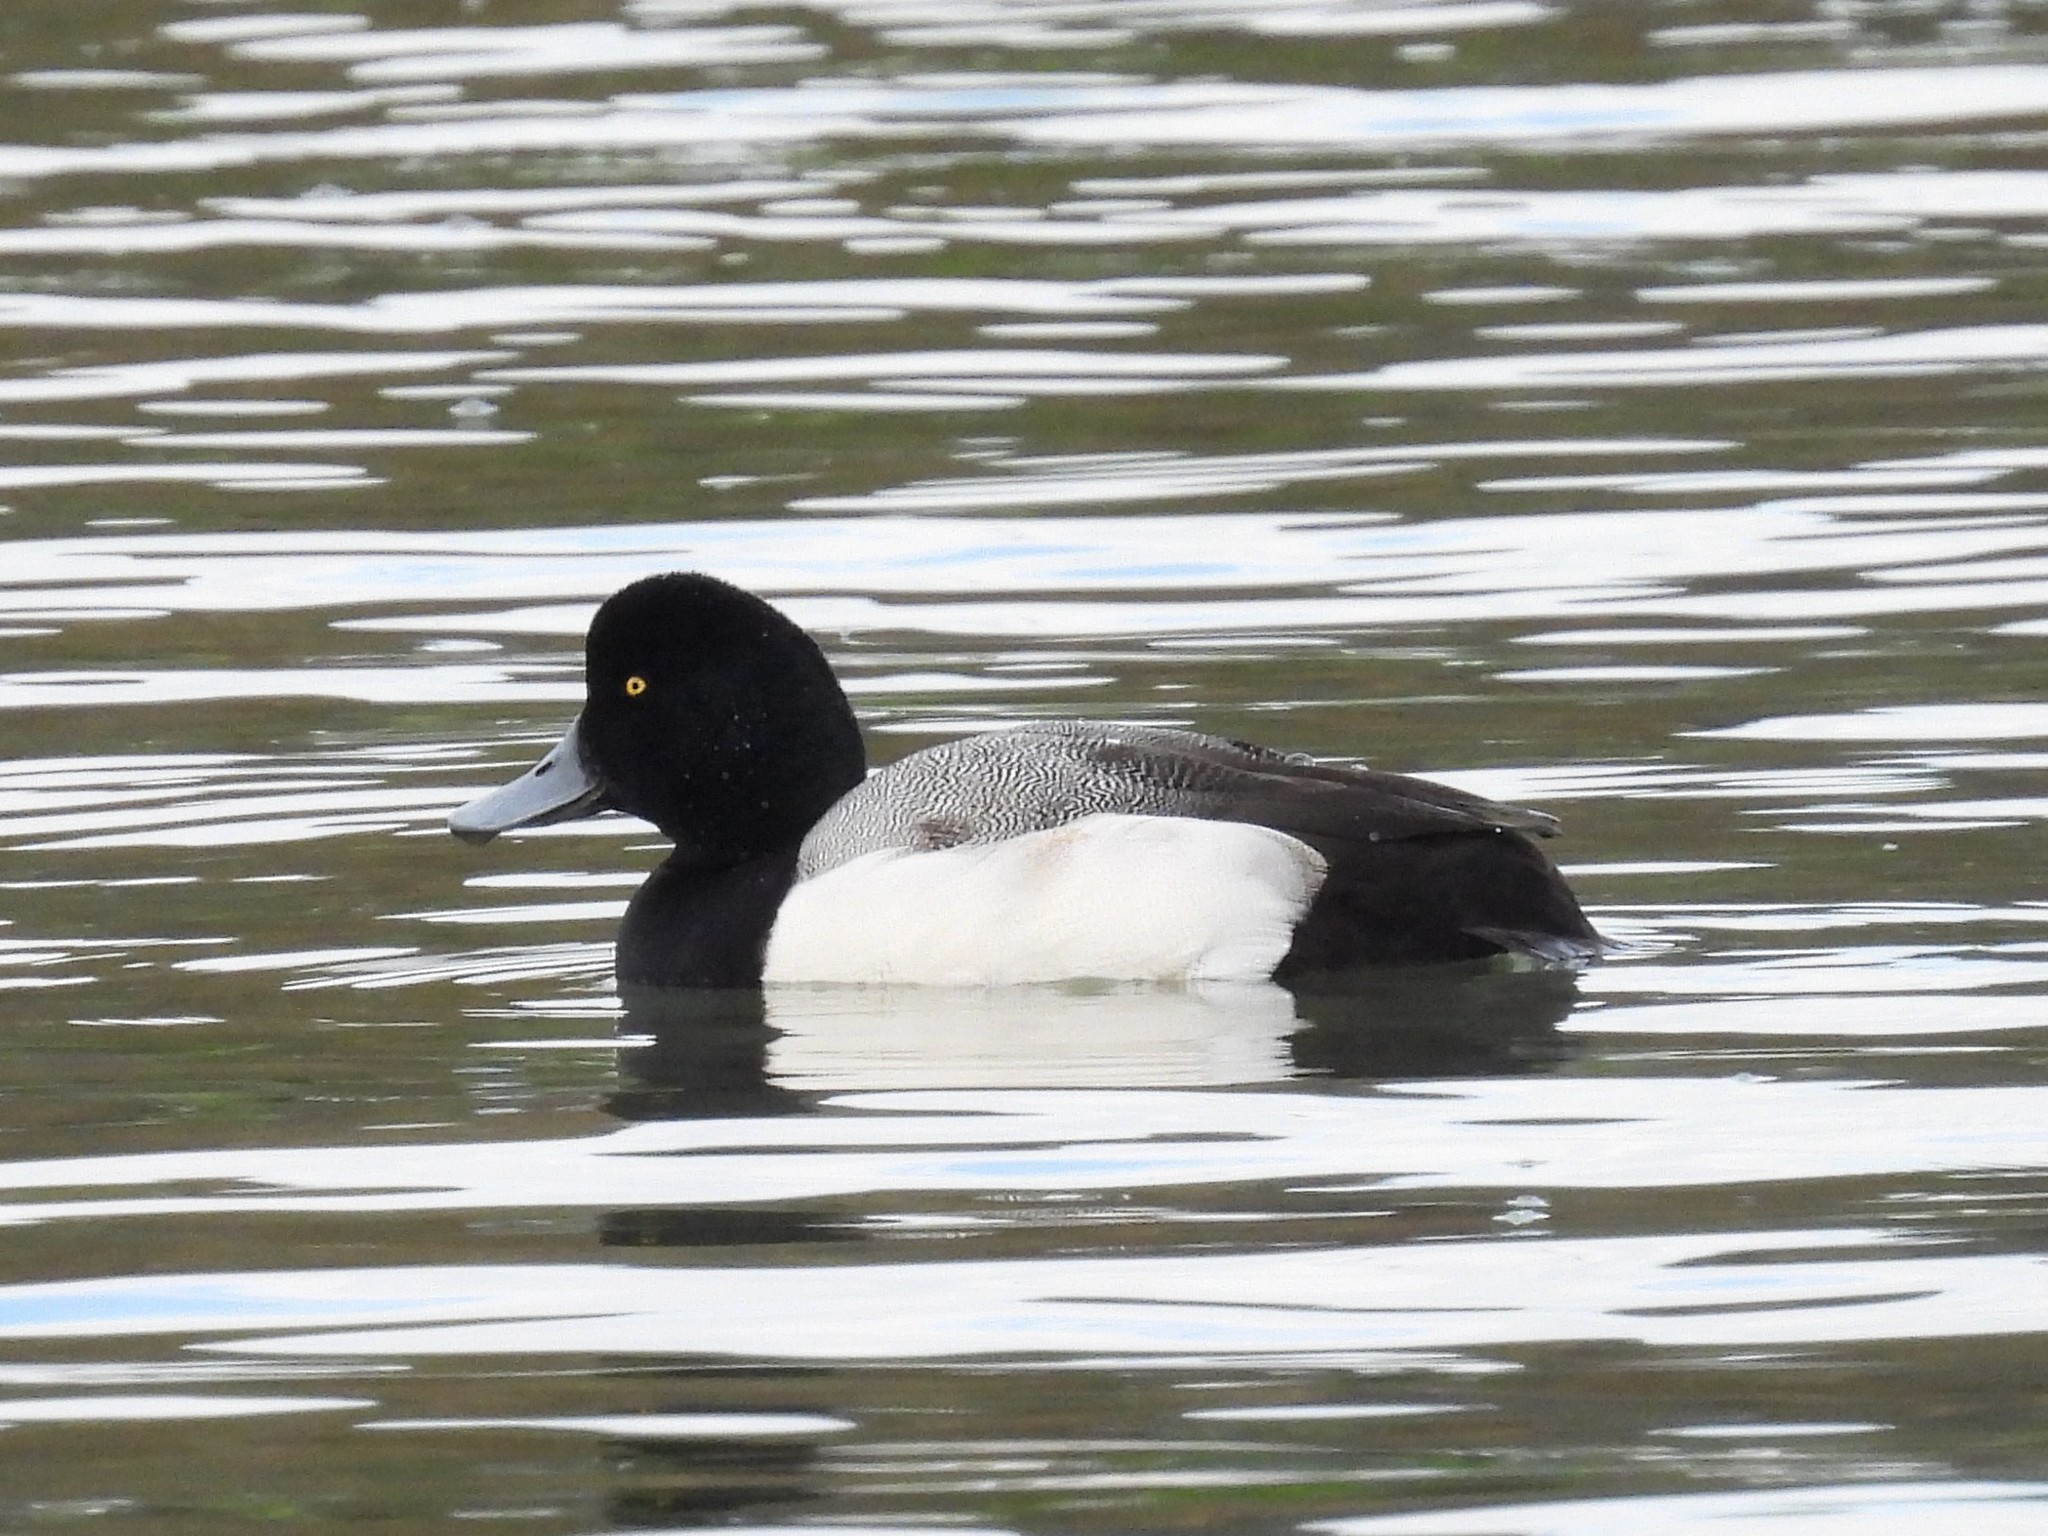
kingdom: Animalia
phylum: Chordata
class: Aves
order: Anseriformes
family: Anatidae
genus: Aythya
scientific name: Aythya marila
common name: Greater scaup
